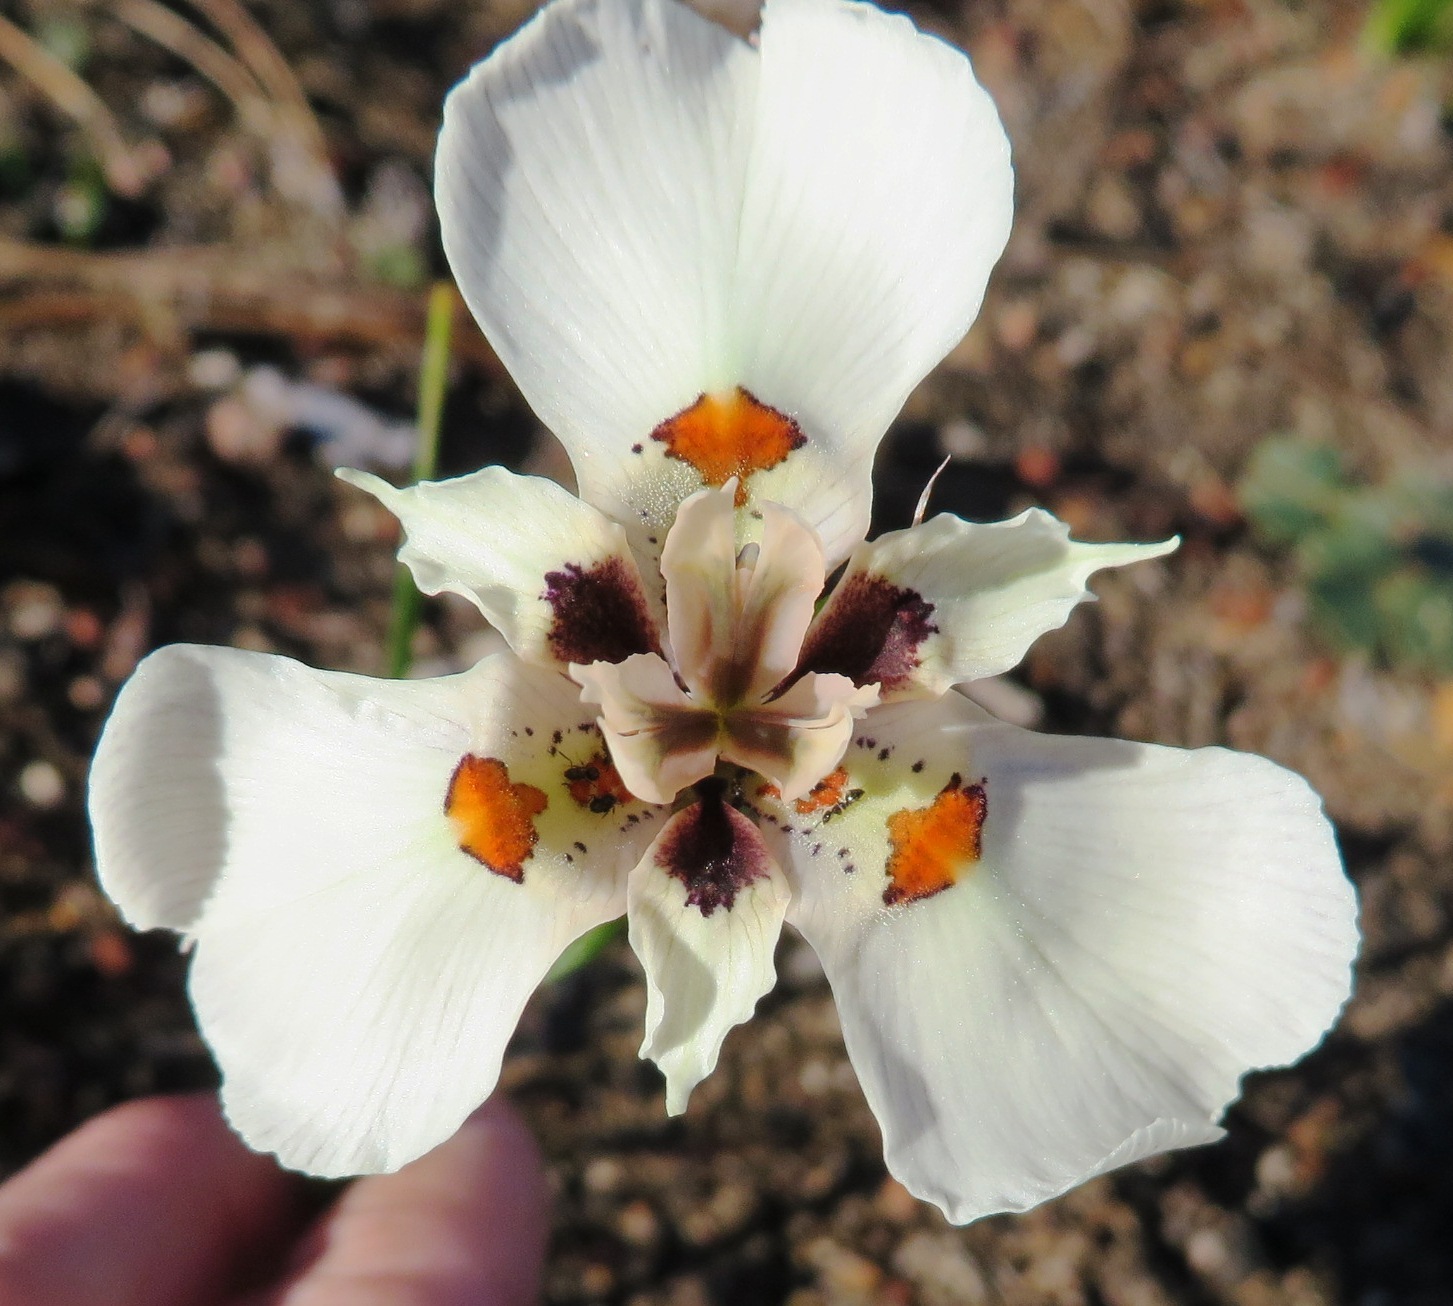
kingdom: Plantae
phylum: Tracheophyta
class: Liliopsida
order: Asparagales
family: Iridaceae
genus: Moraea
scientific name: Moraea cantharophila
